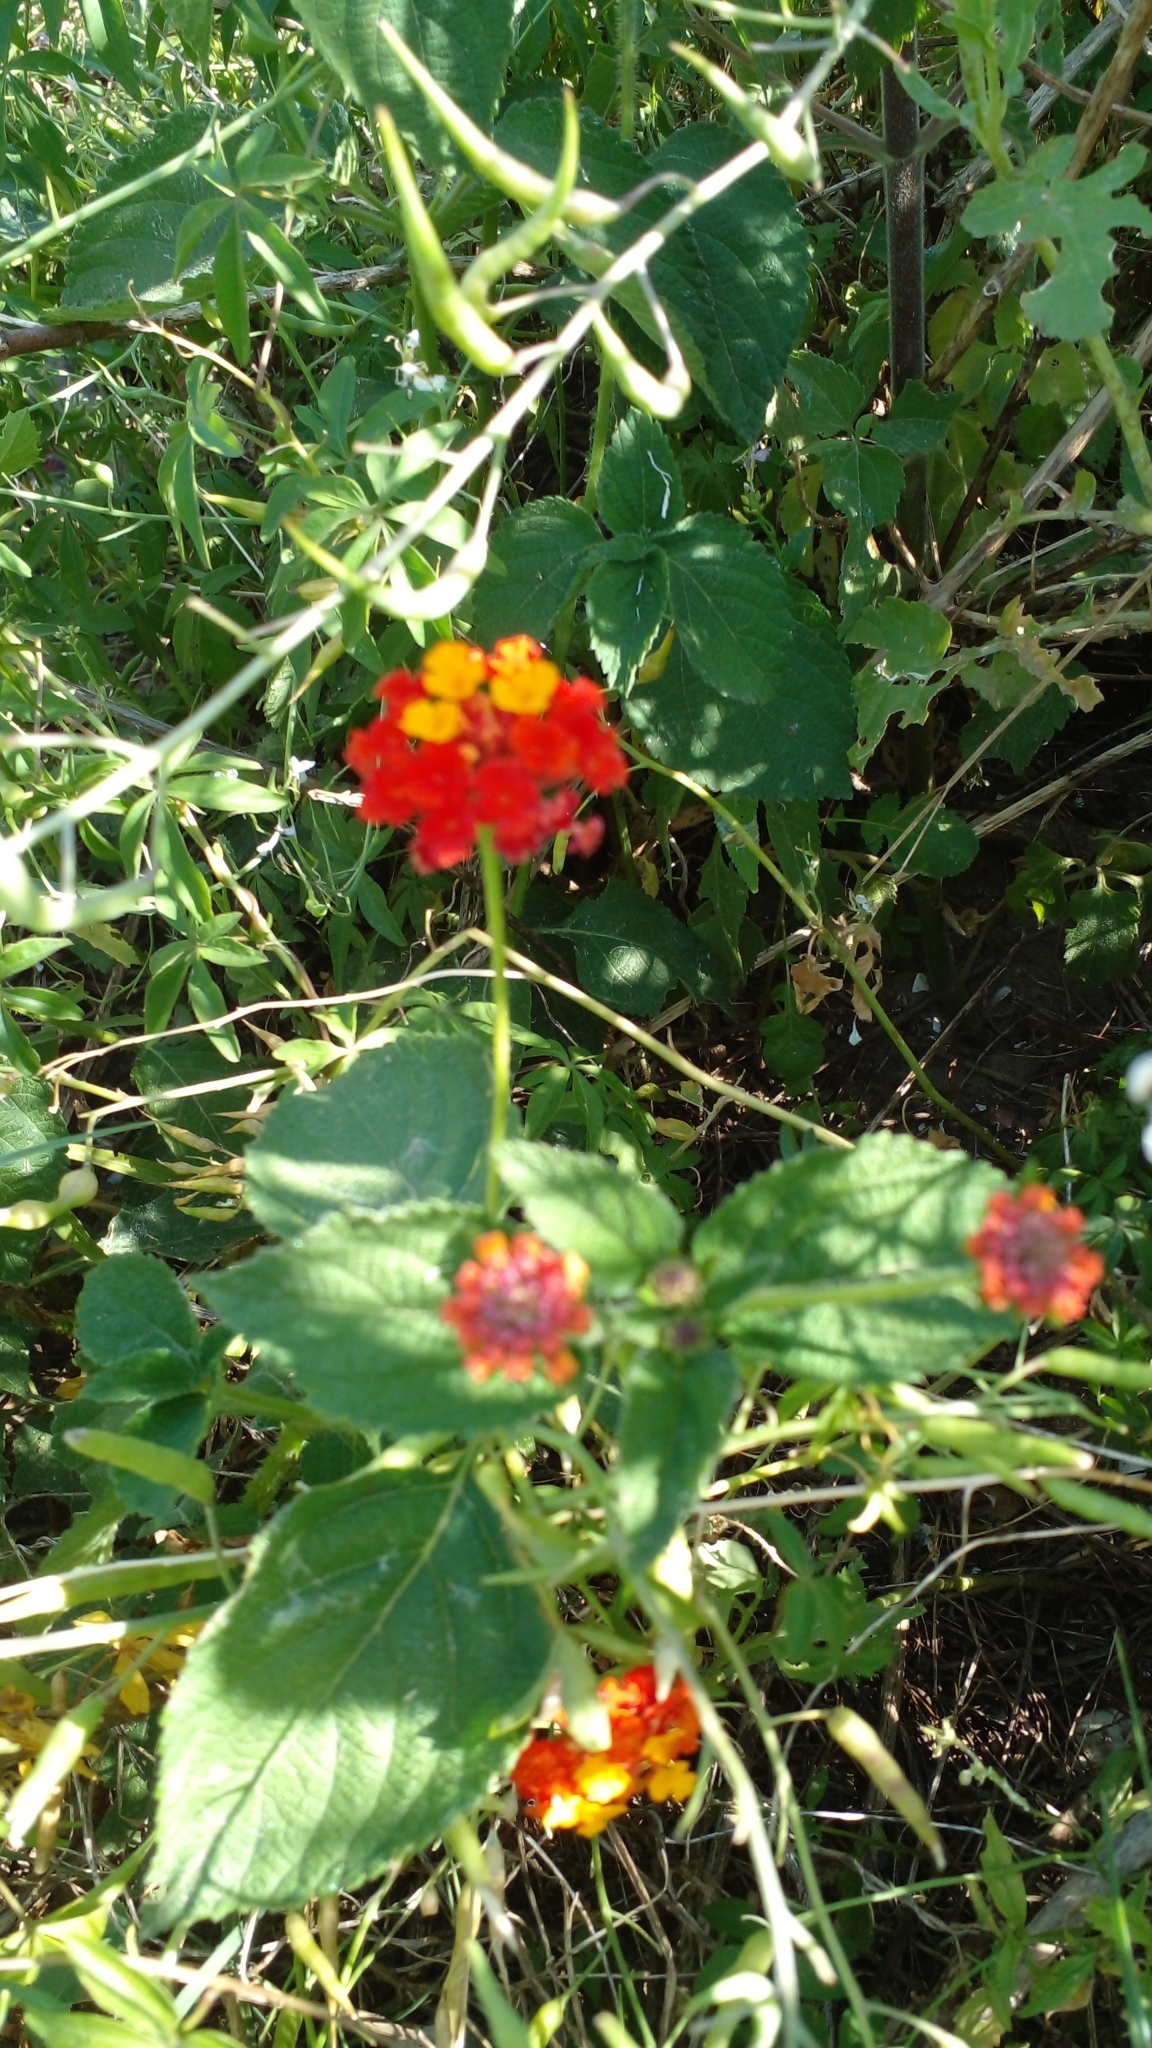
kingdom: Plantae
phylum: Tracheophyta
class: Magnoliopsida
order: Lamiales
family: Verbenaceae
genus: Lantana
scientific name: Lantana camara
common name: Lantana
